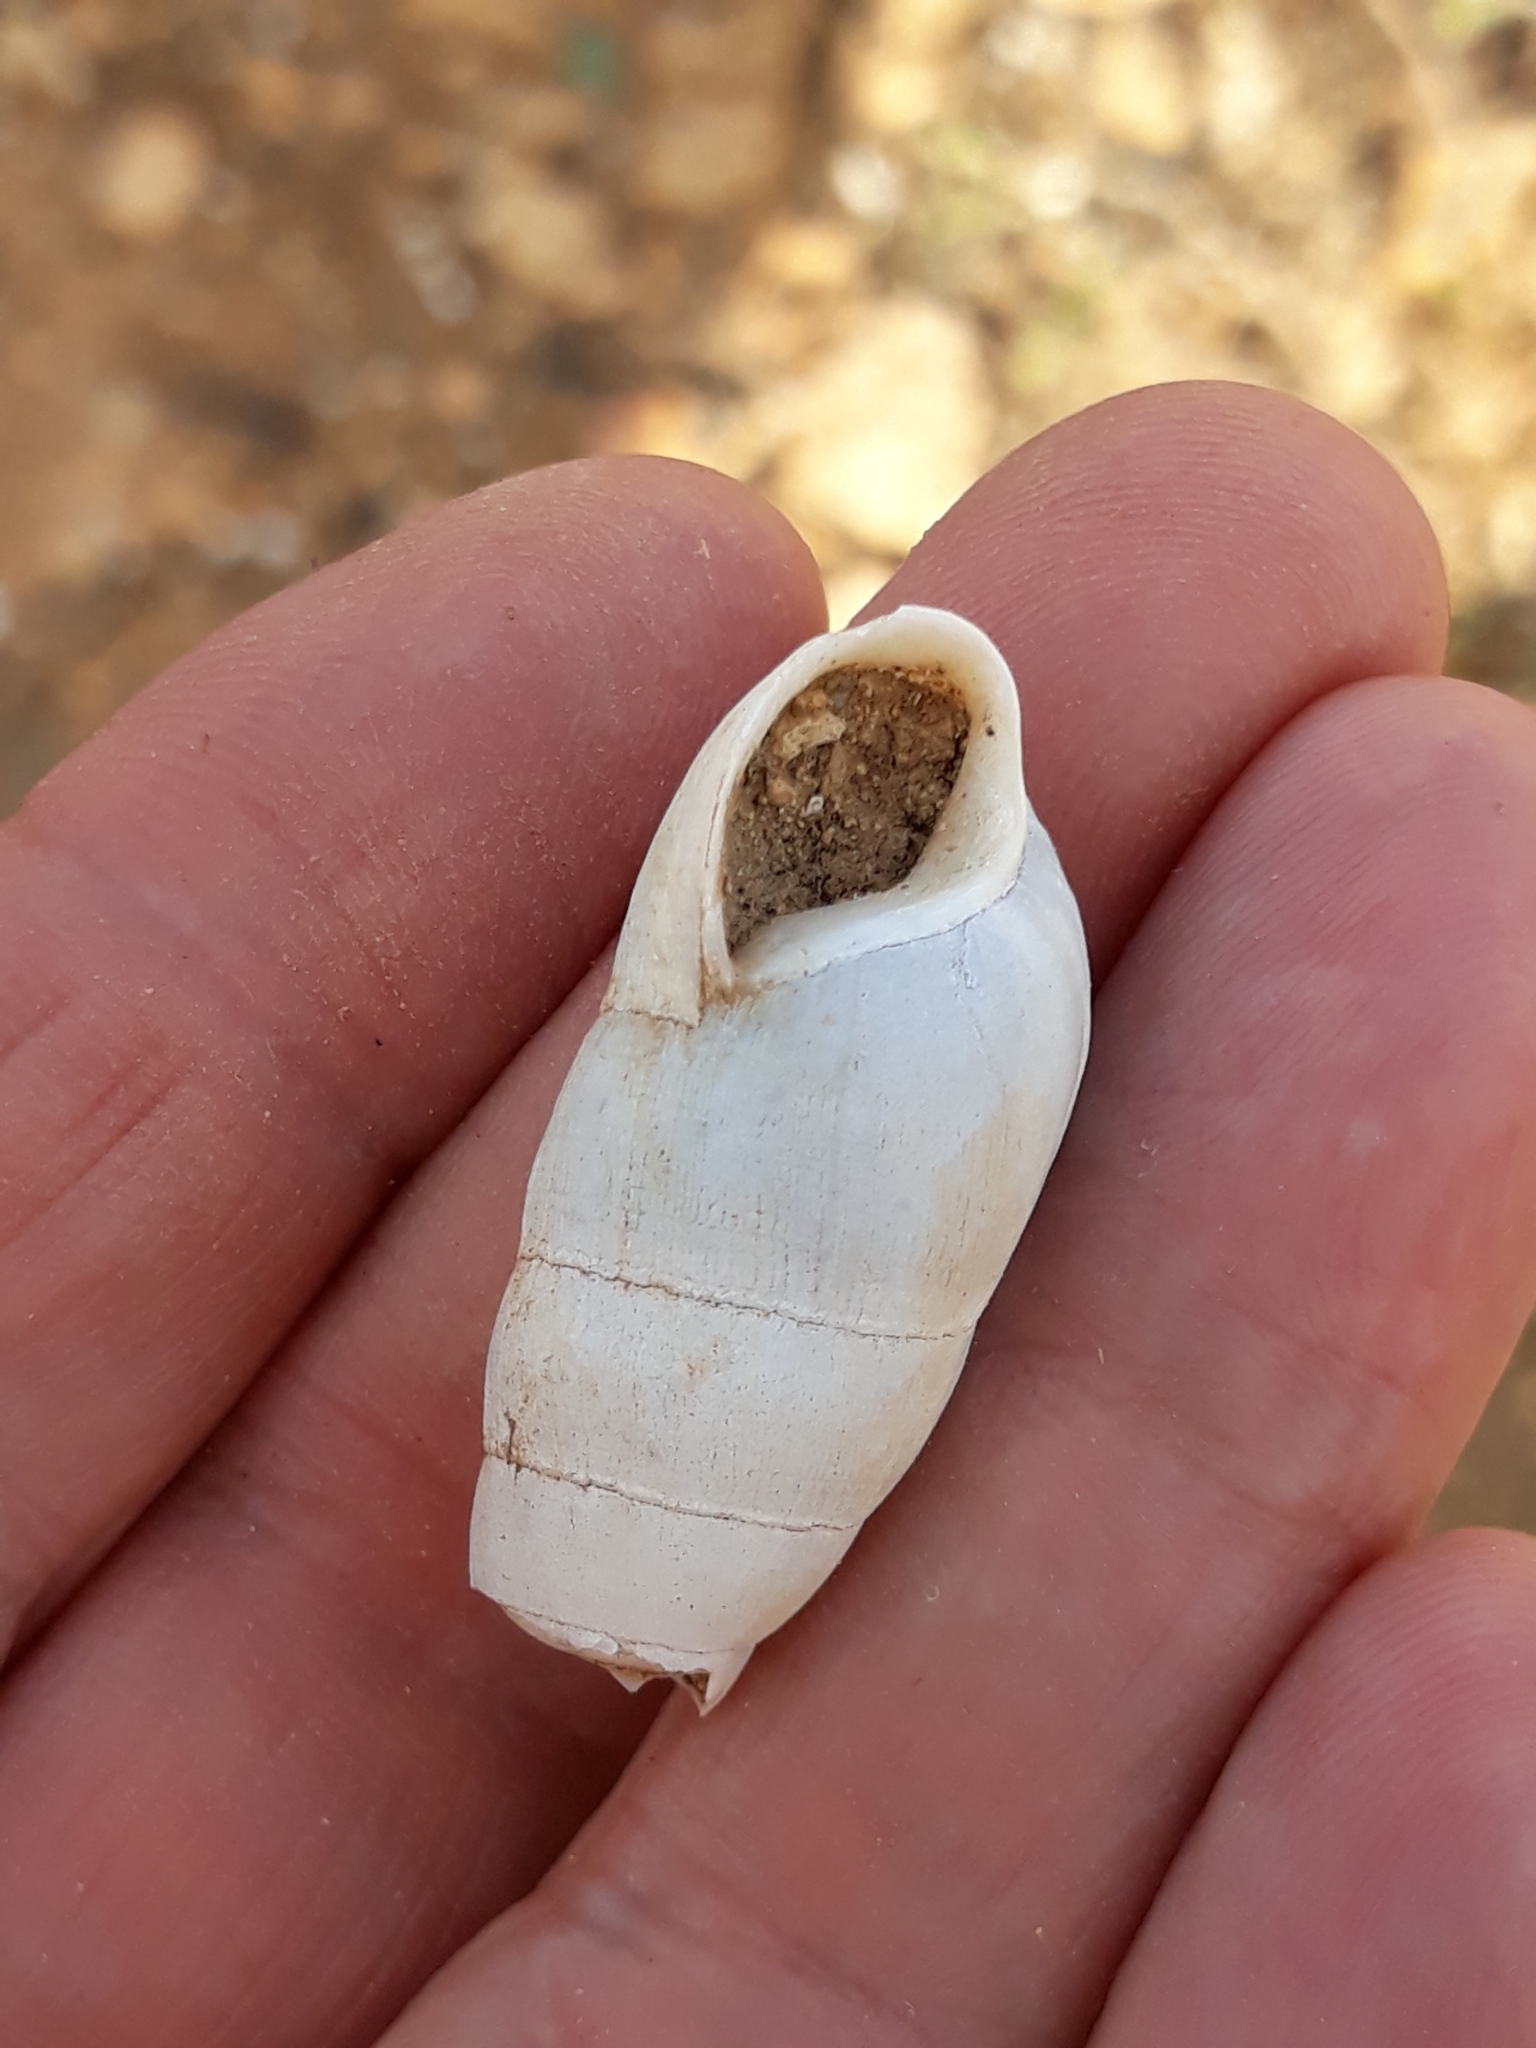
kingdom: Animalia
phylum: Mollusca
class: Gastropoda
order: Stylommatophora
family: Achatinidae
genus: Rumina
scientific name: Rumina decollata
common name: Decollate snail
